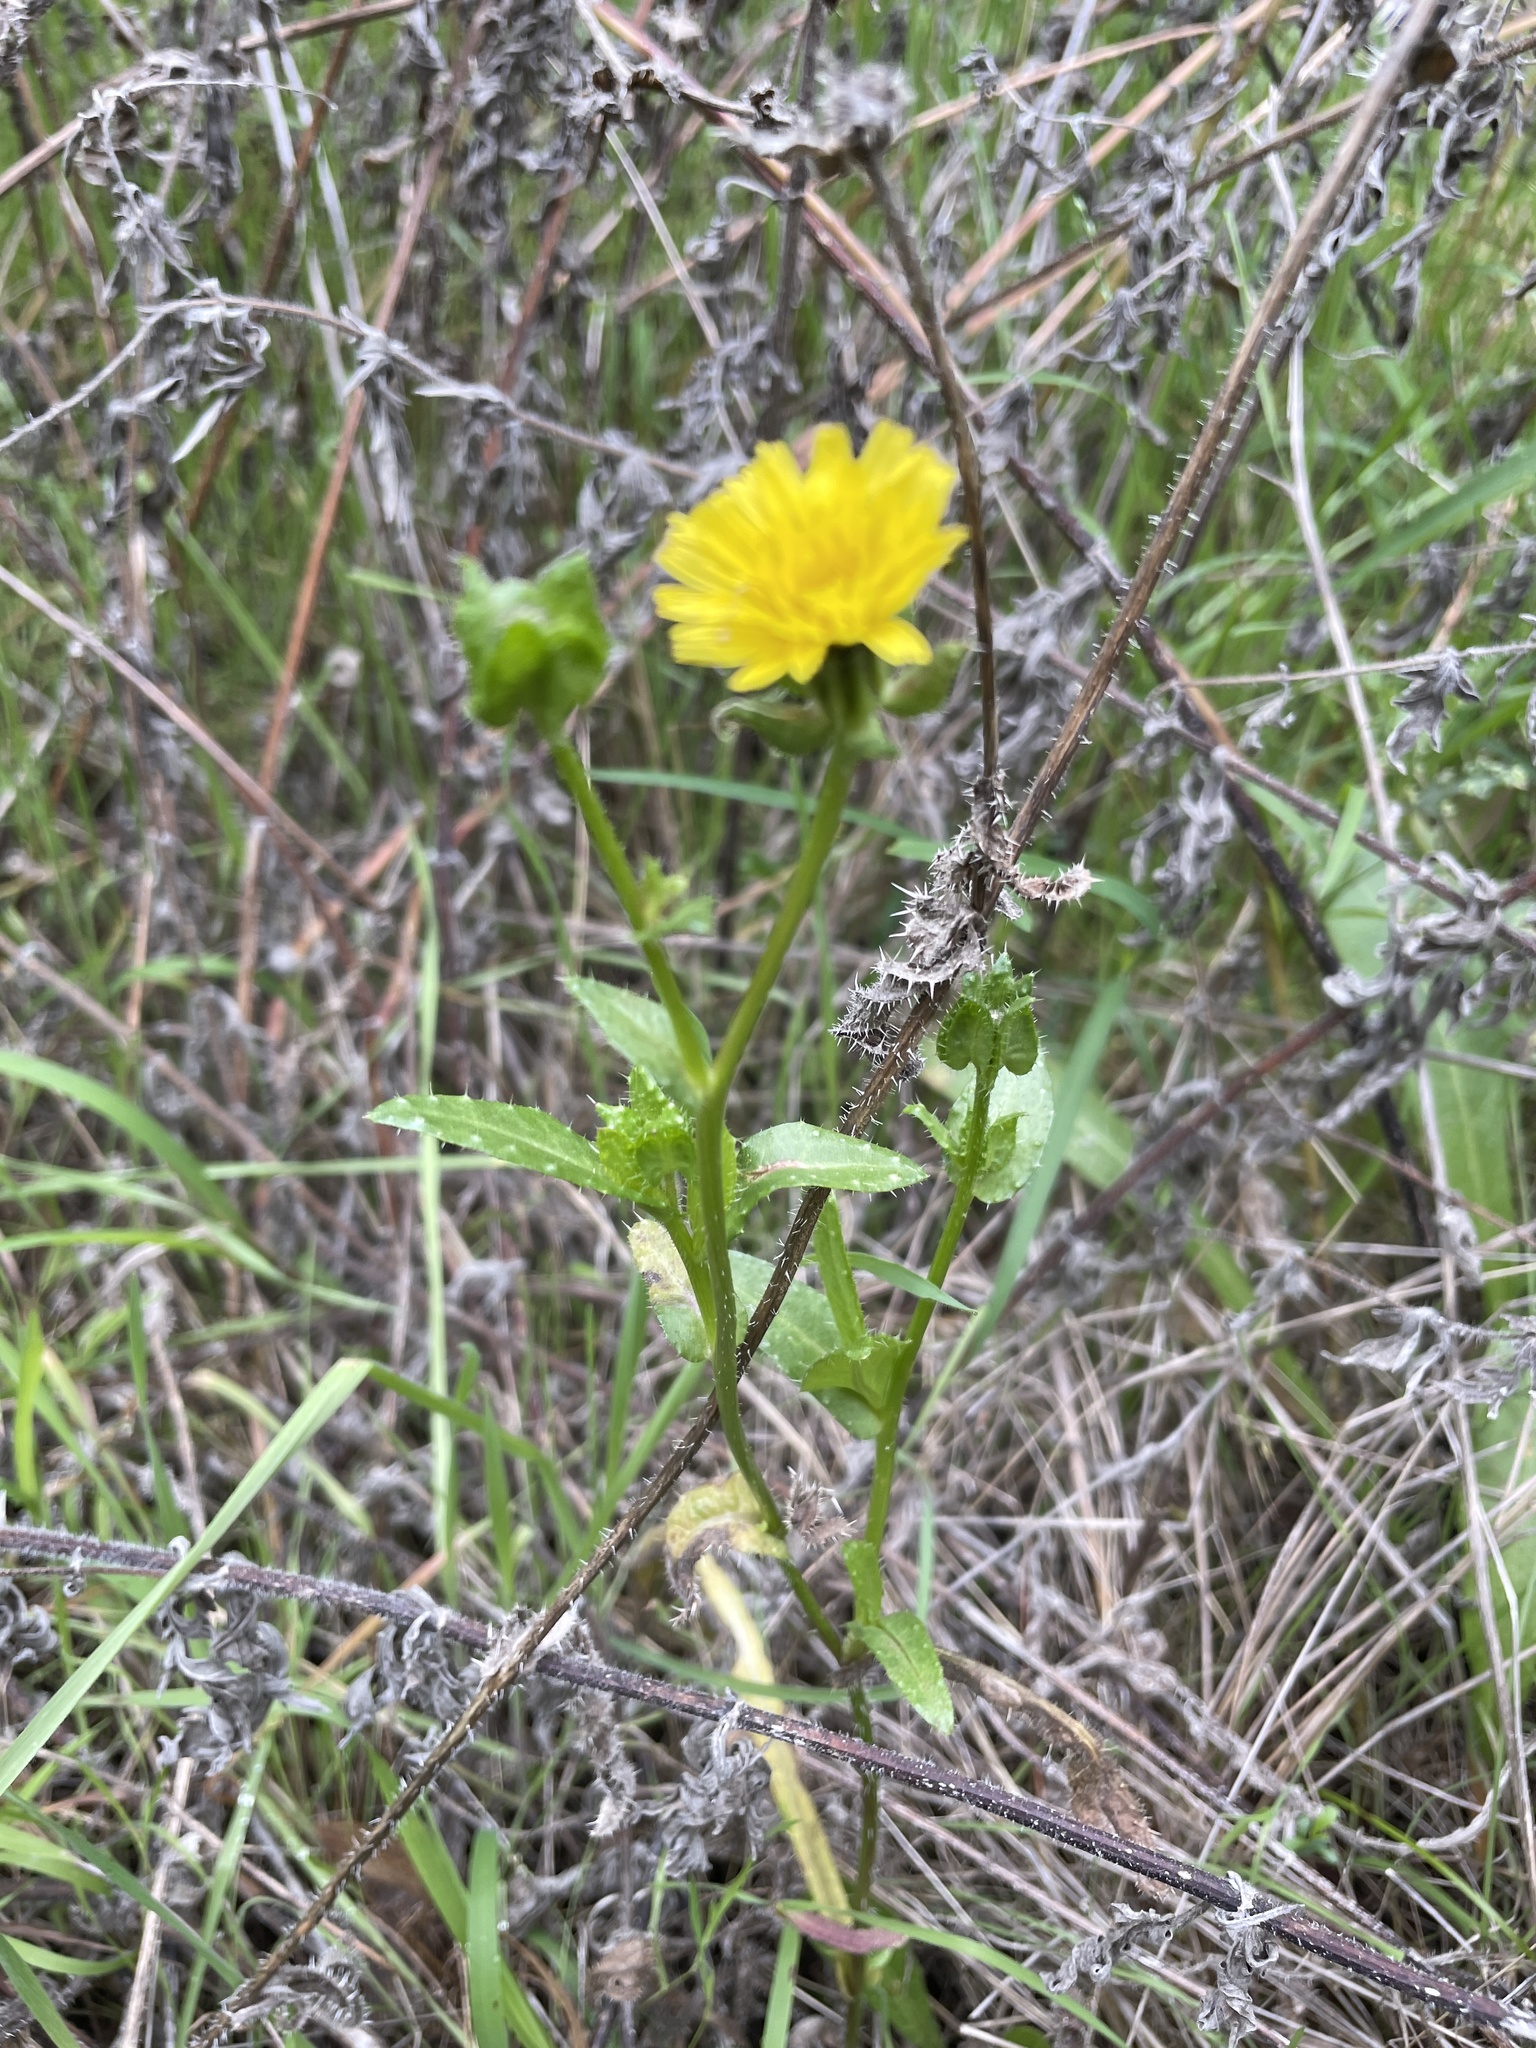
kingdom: Plantae
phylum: Tracheophyta
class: Magnoliopsida
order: Asterales
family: Asteraceae
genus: Helminthotheca
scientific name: Helminthotheca echioides
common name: Ox-tongue
